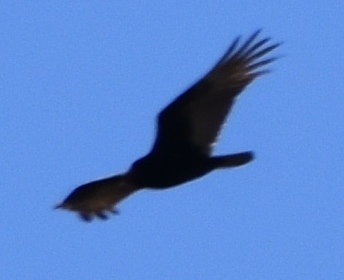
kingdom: Animalia
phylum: Chordata
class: Aves
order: Accipitriformes
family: Cathartidae
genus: Cathartes
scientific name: Cathartes aura
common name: Turkey vulture
